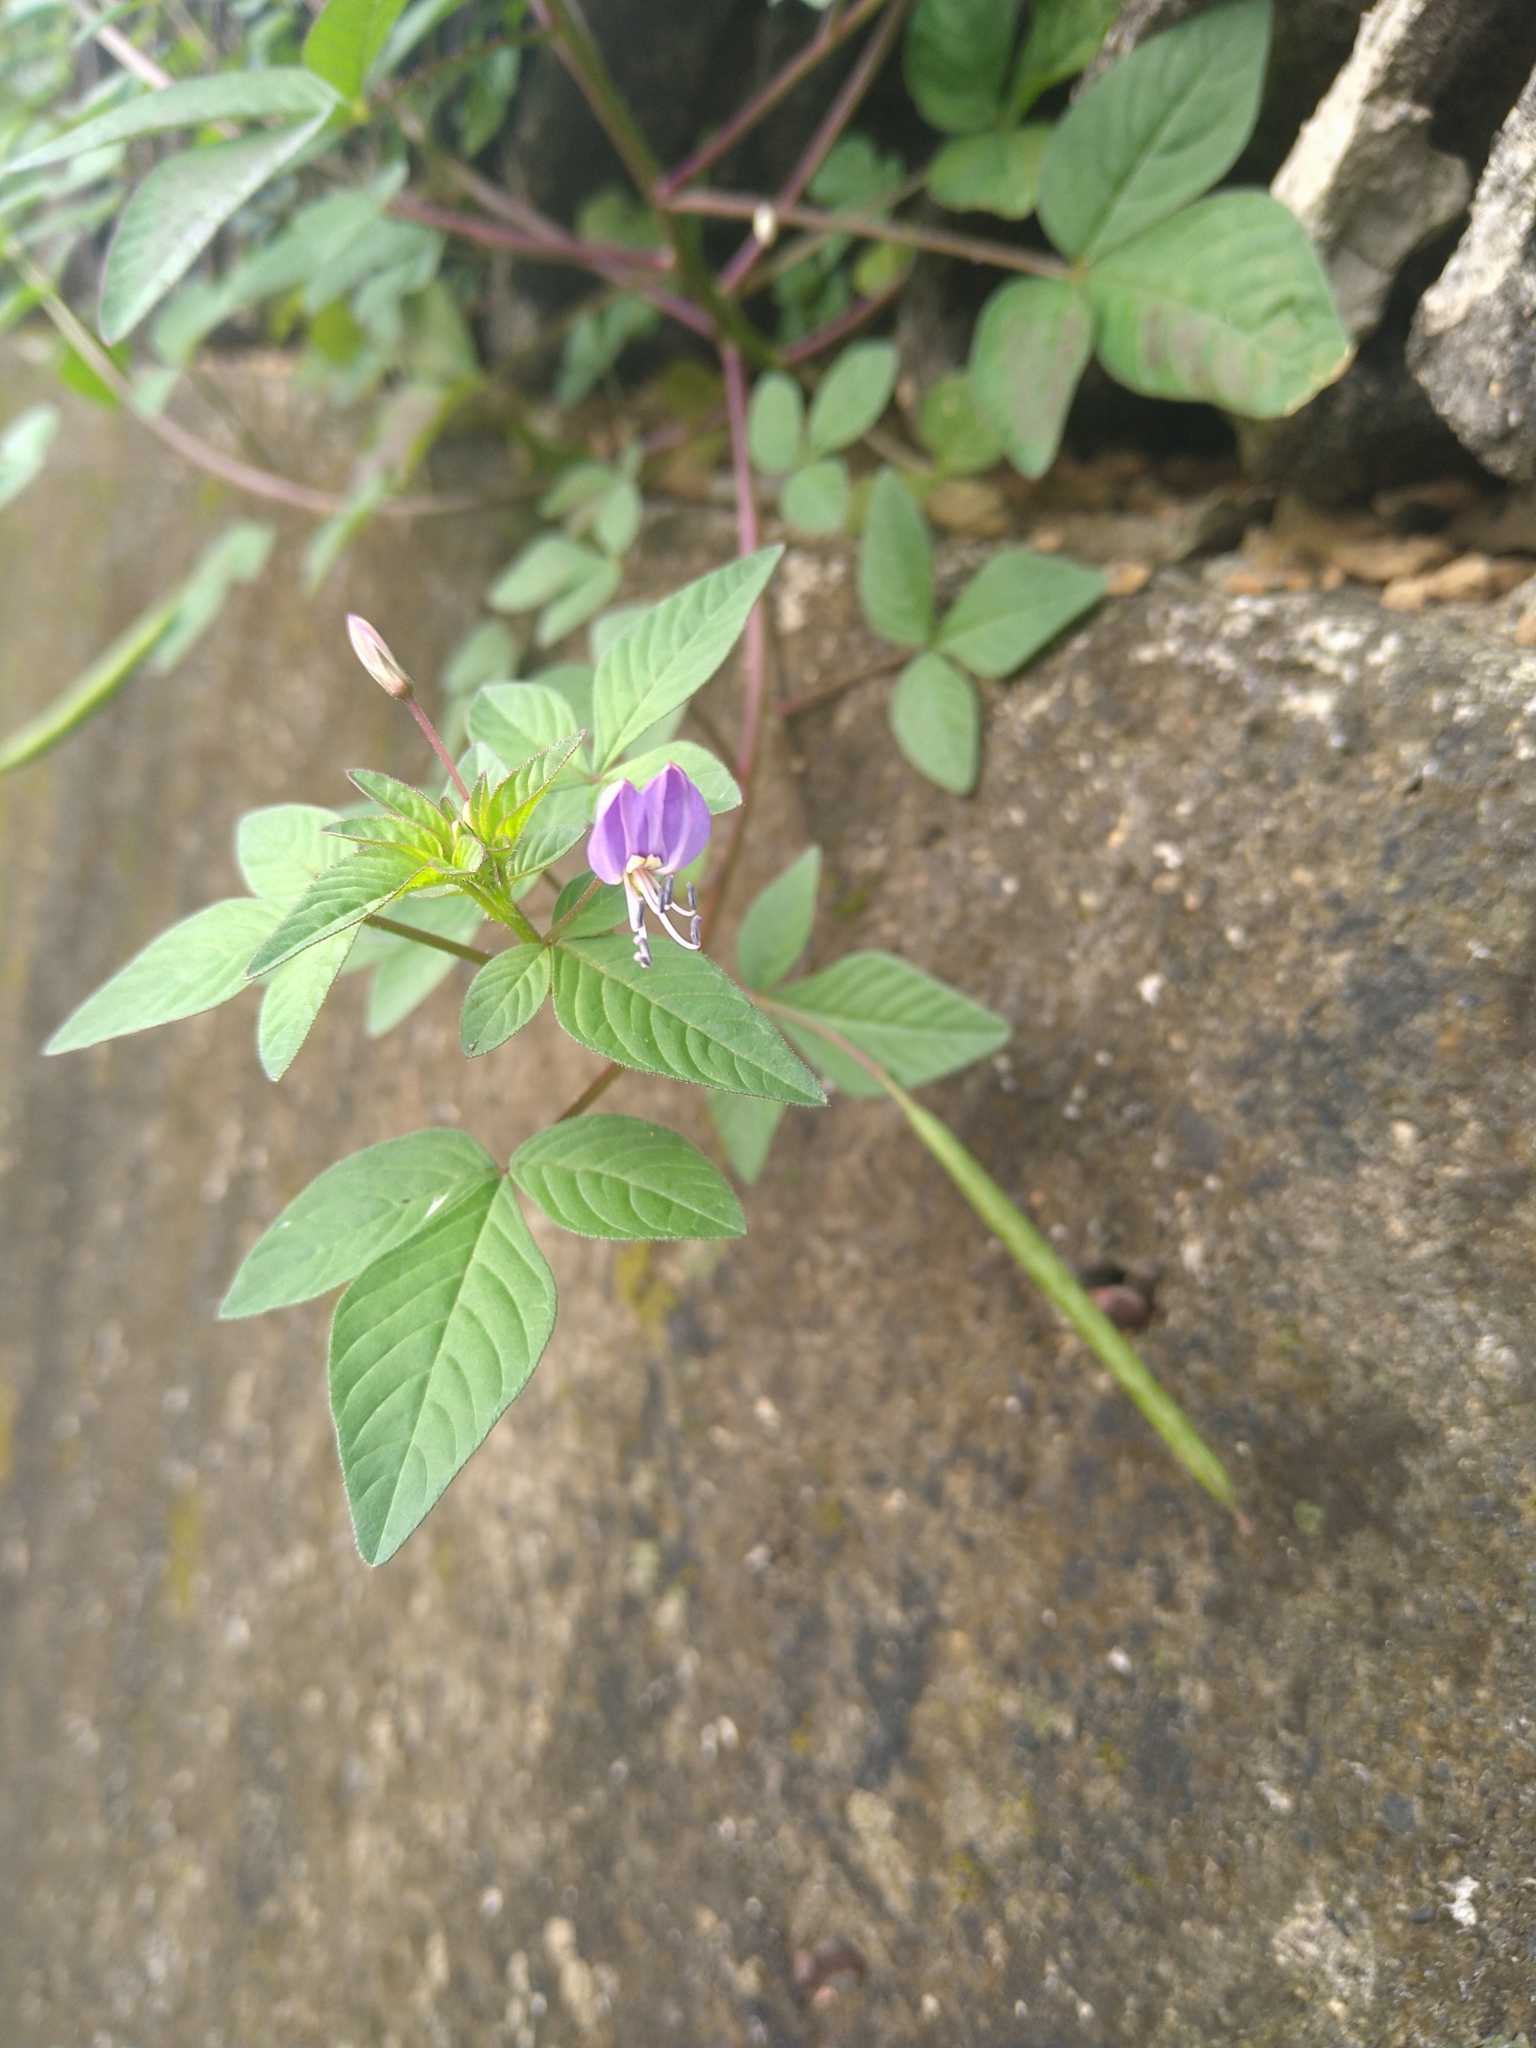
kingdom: Plantae
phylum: Tracheophyta
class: Magnoliopsida
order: Brassicales
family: Cleomaceae
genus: Sieruela
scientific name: Sieruela rutidosperma
